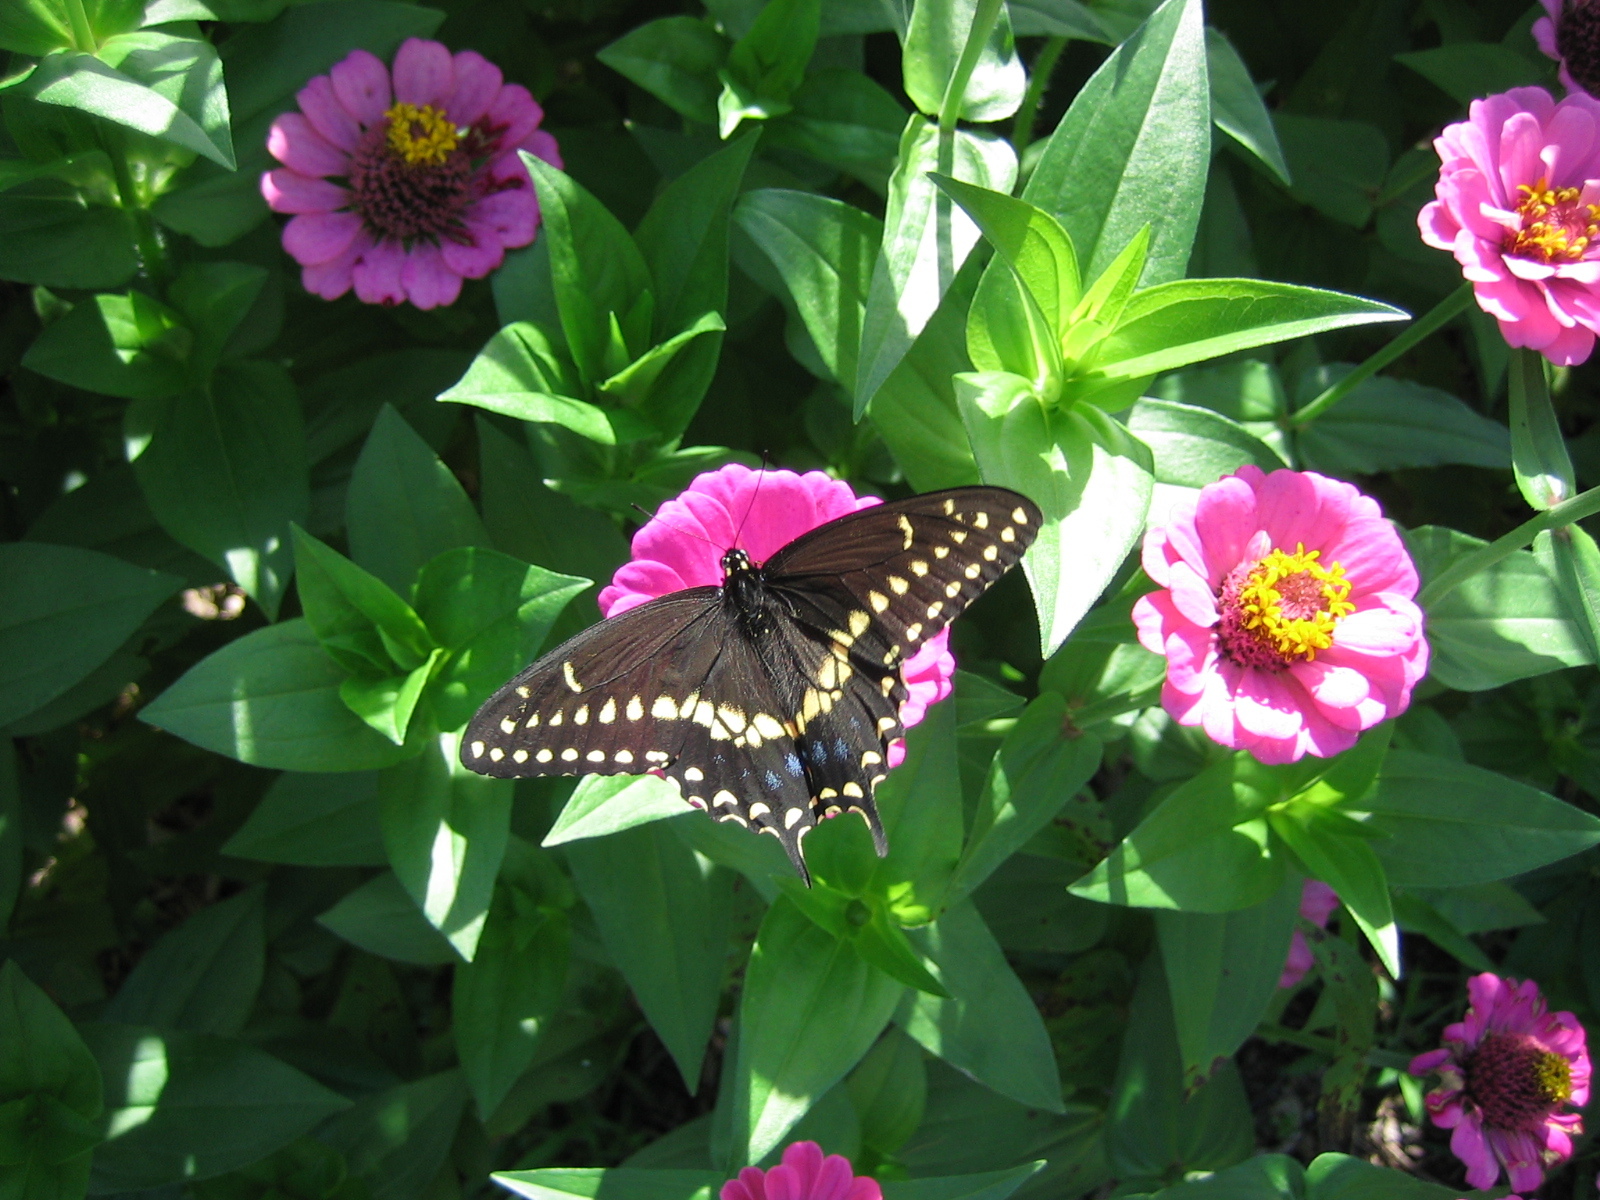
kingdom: Animalia
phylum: Arthropoda
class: Insecta
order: Lepidoptera
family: Papilionidae
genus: Papilio
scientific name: Papilio polyxenes
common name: Black swallowtail
